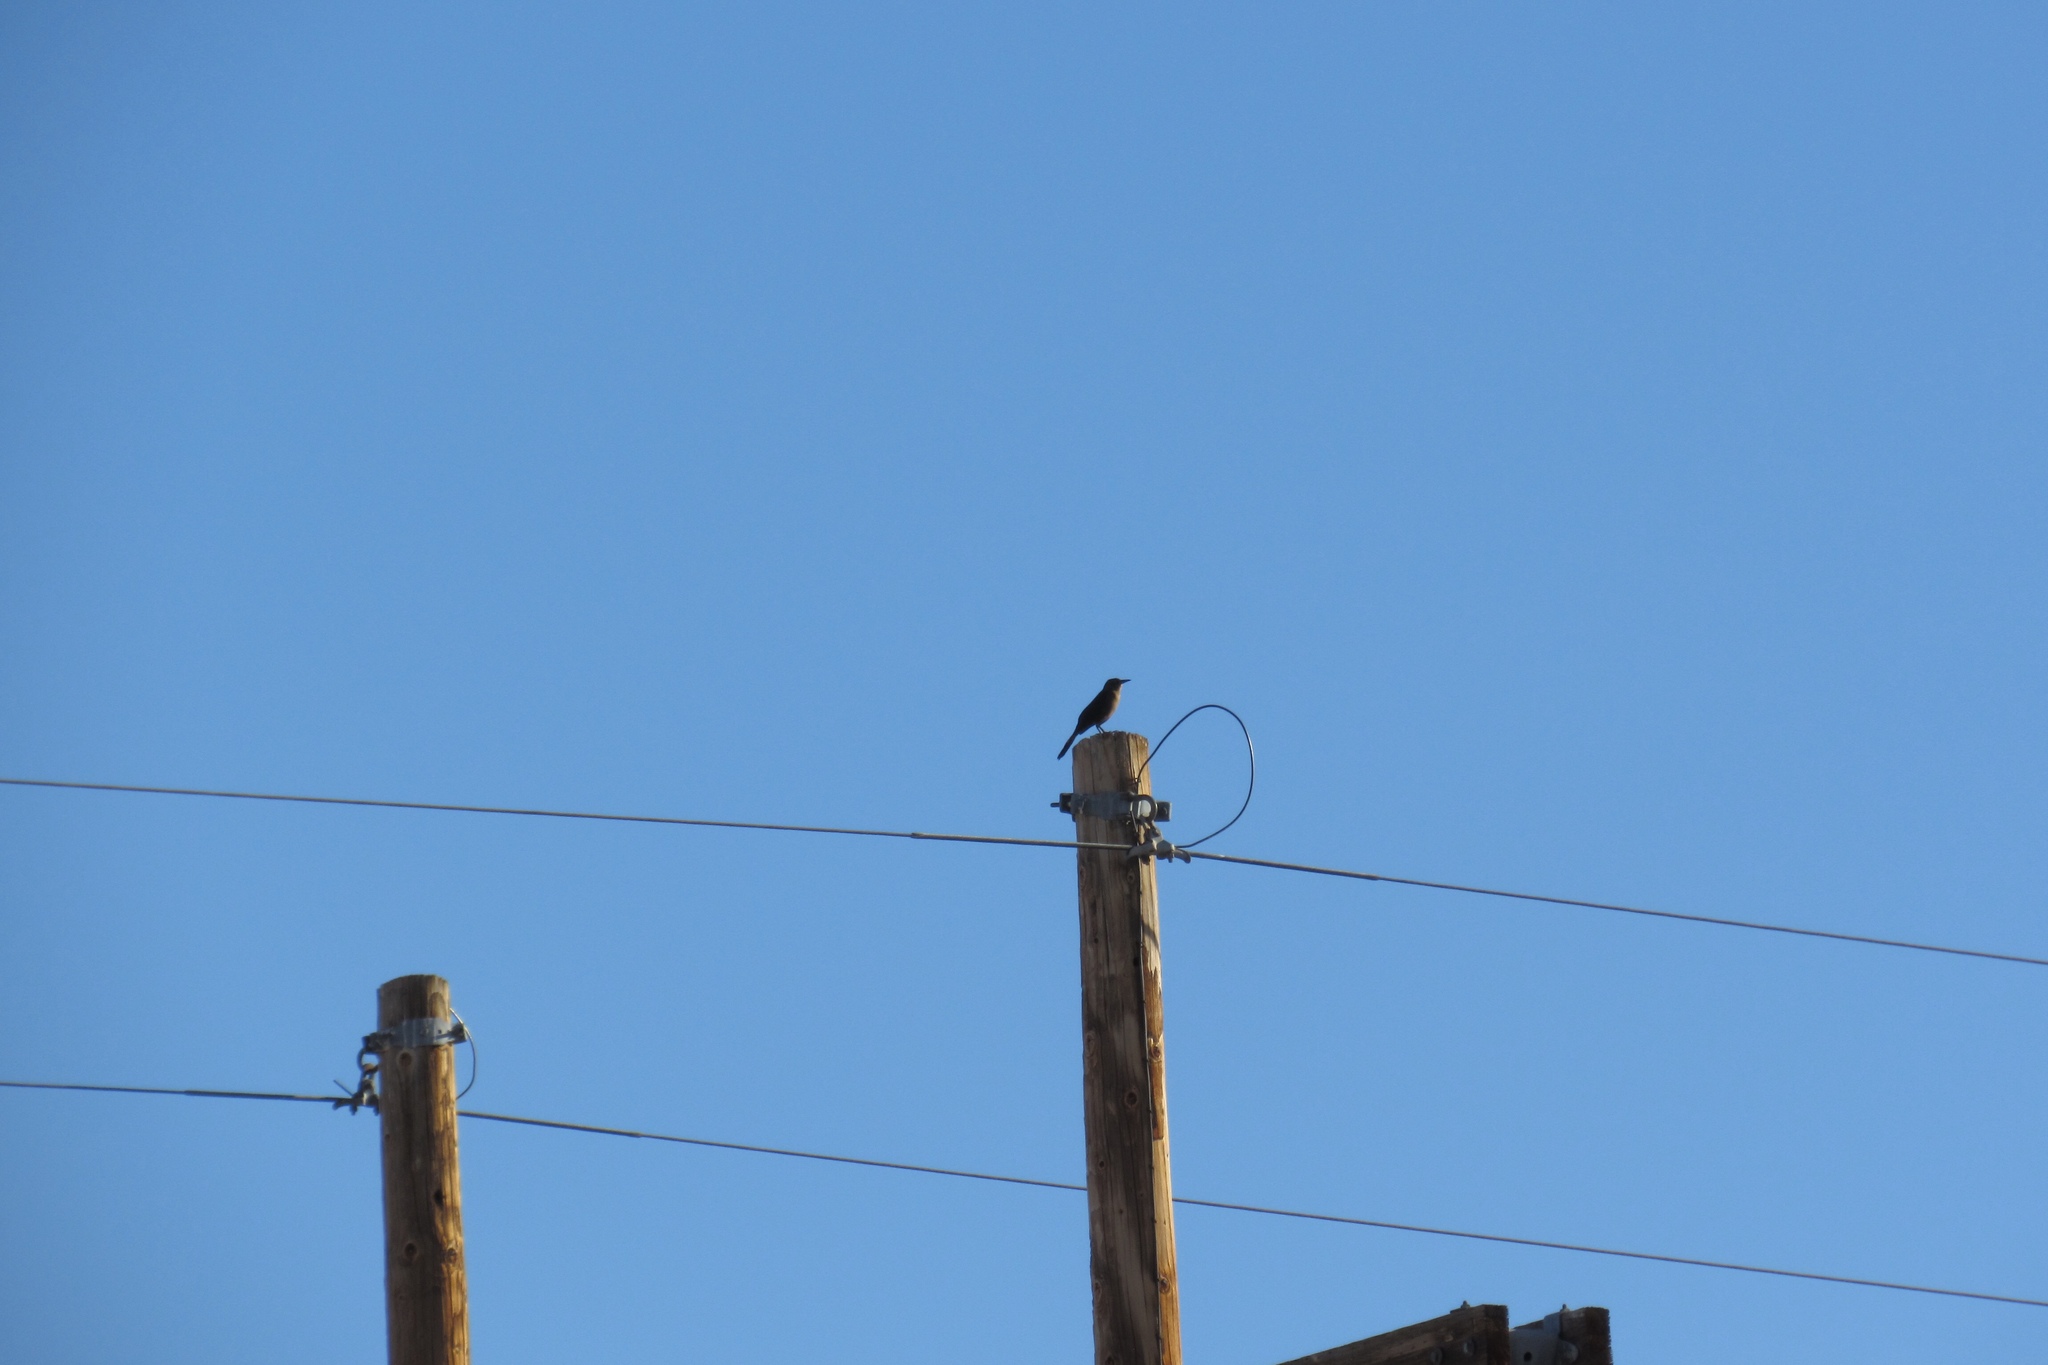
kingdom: Animalia
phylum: Chordata
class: Aves
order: Passeriformes
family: Icteridae
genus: Quiscalus
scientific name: Quiscalus mexicanus
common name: Great-tailed grackle
